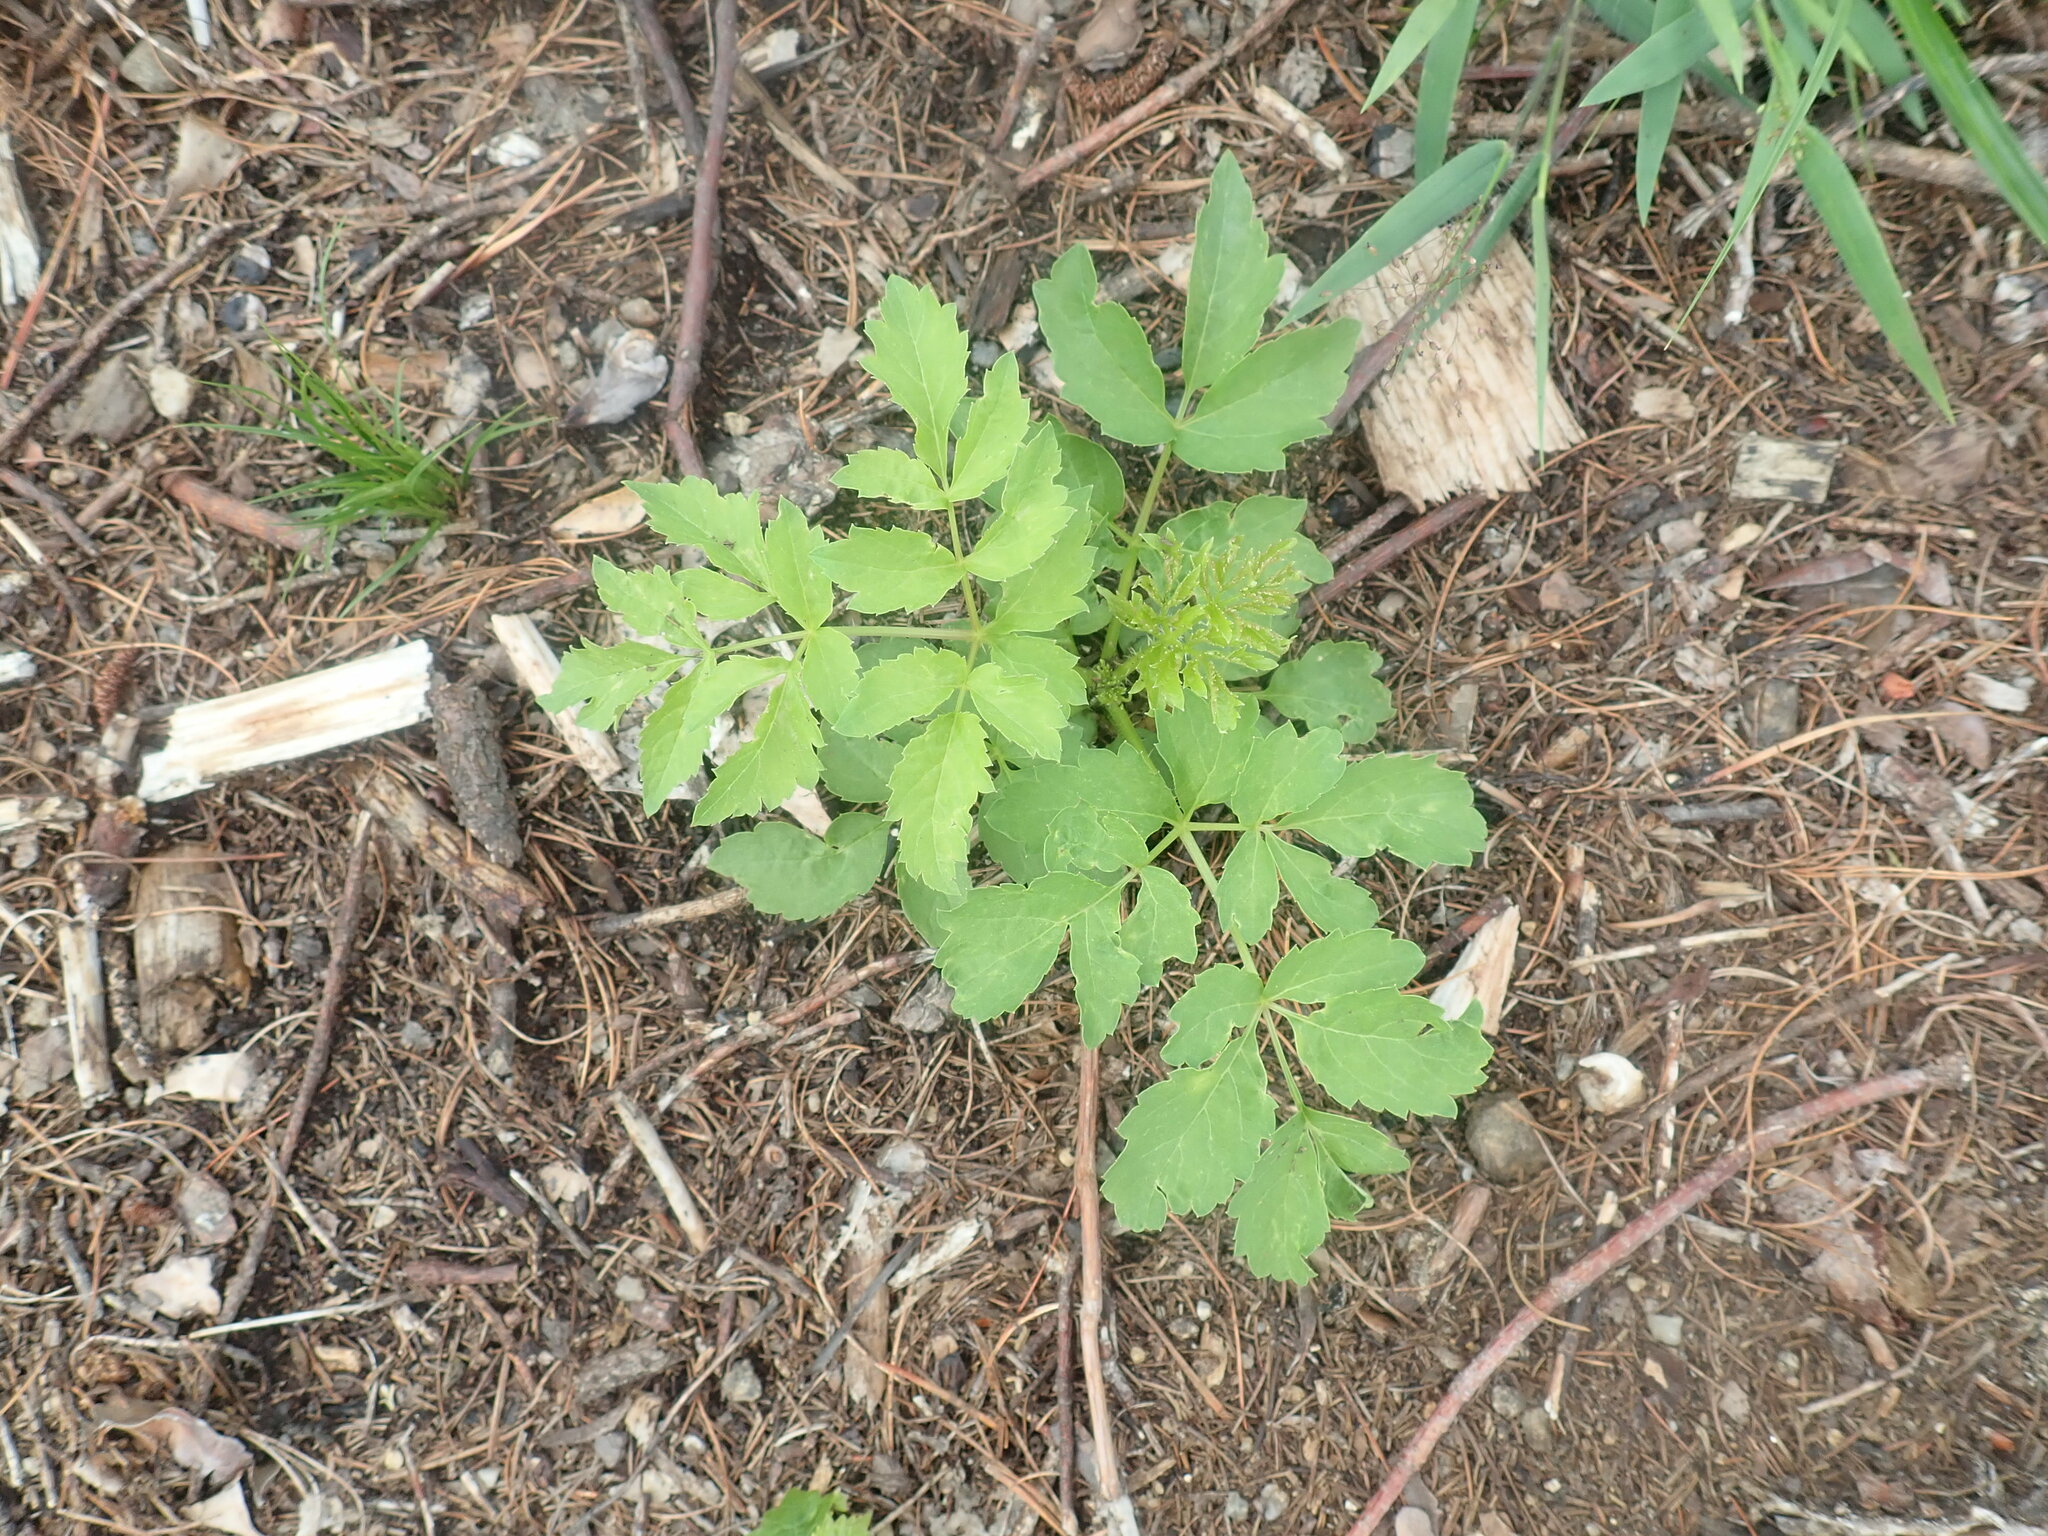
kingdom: Plantae
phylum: Tracheophyta
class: Magnoliopsida
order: Apiales
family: Araliaceae
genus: Aralia
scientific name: Aralia hispida
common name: Bristly sarsaparilla
